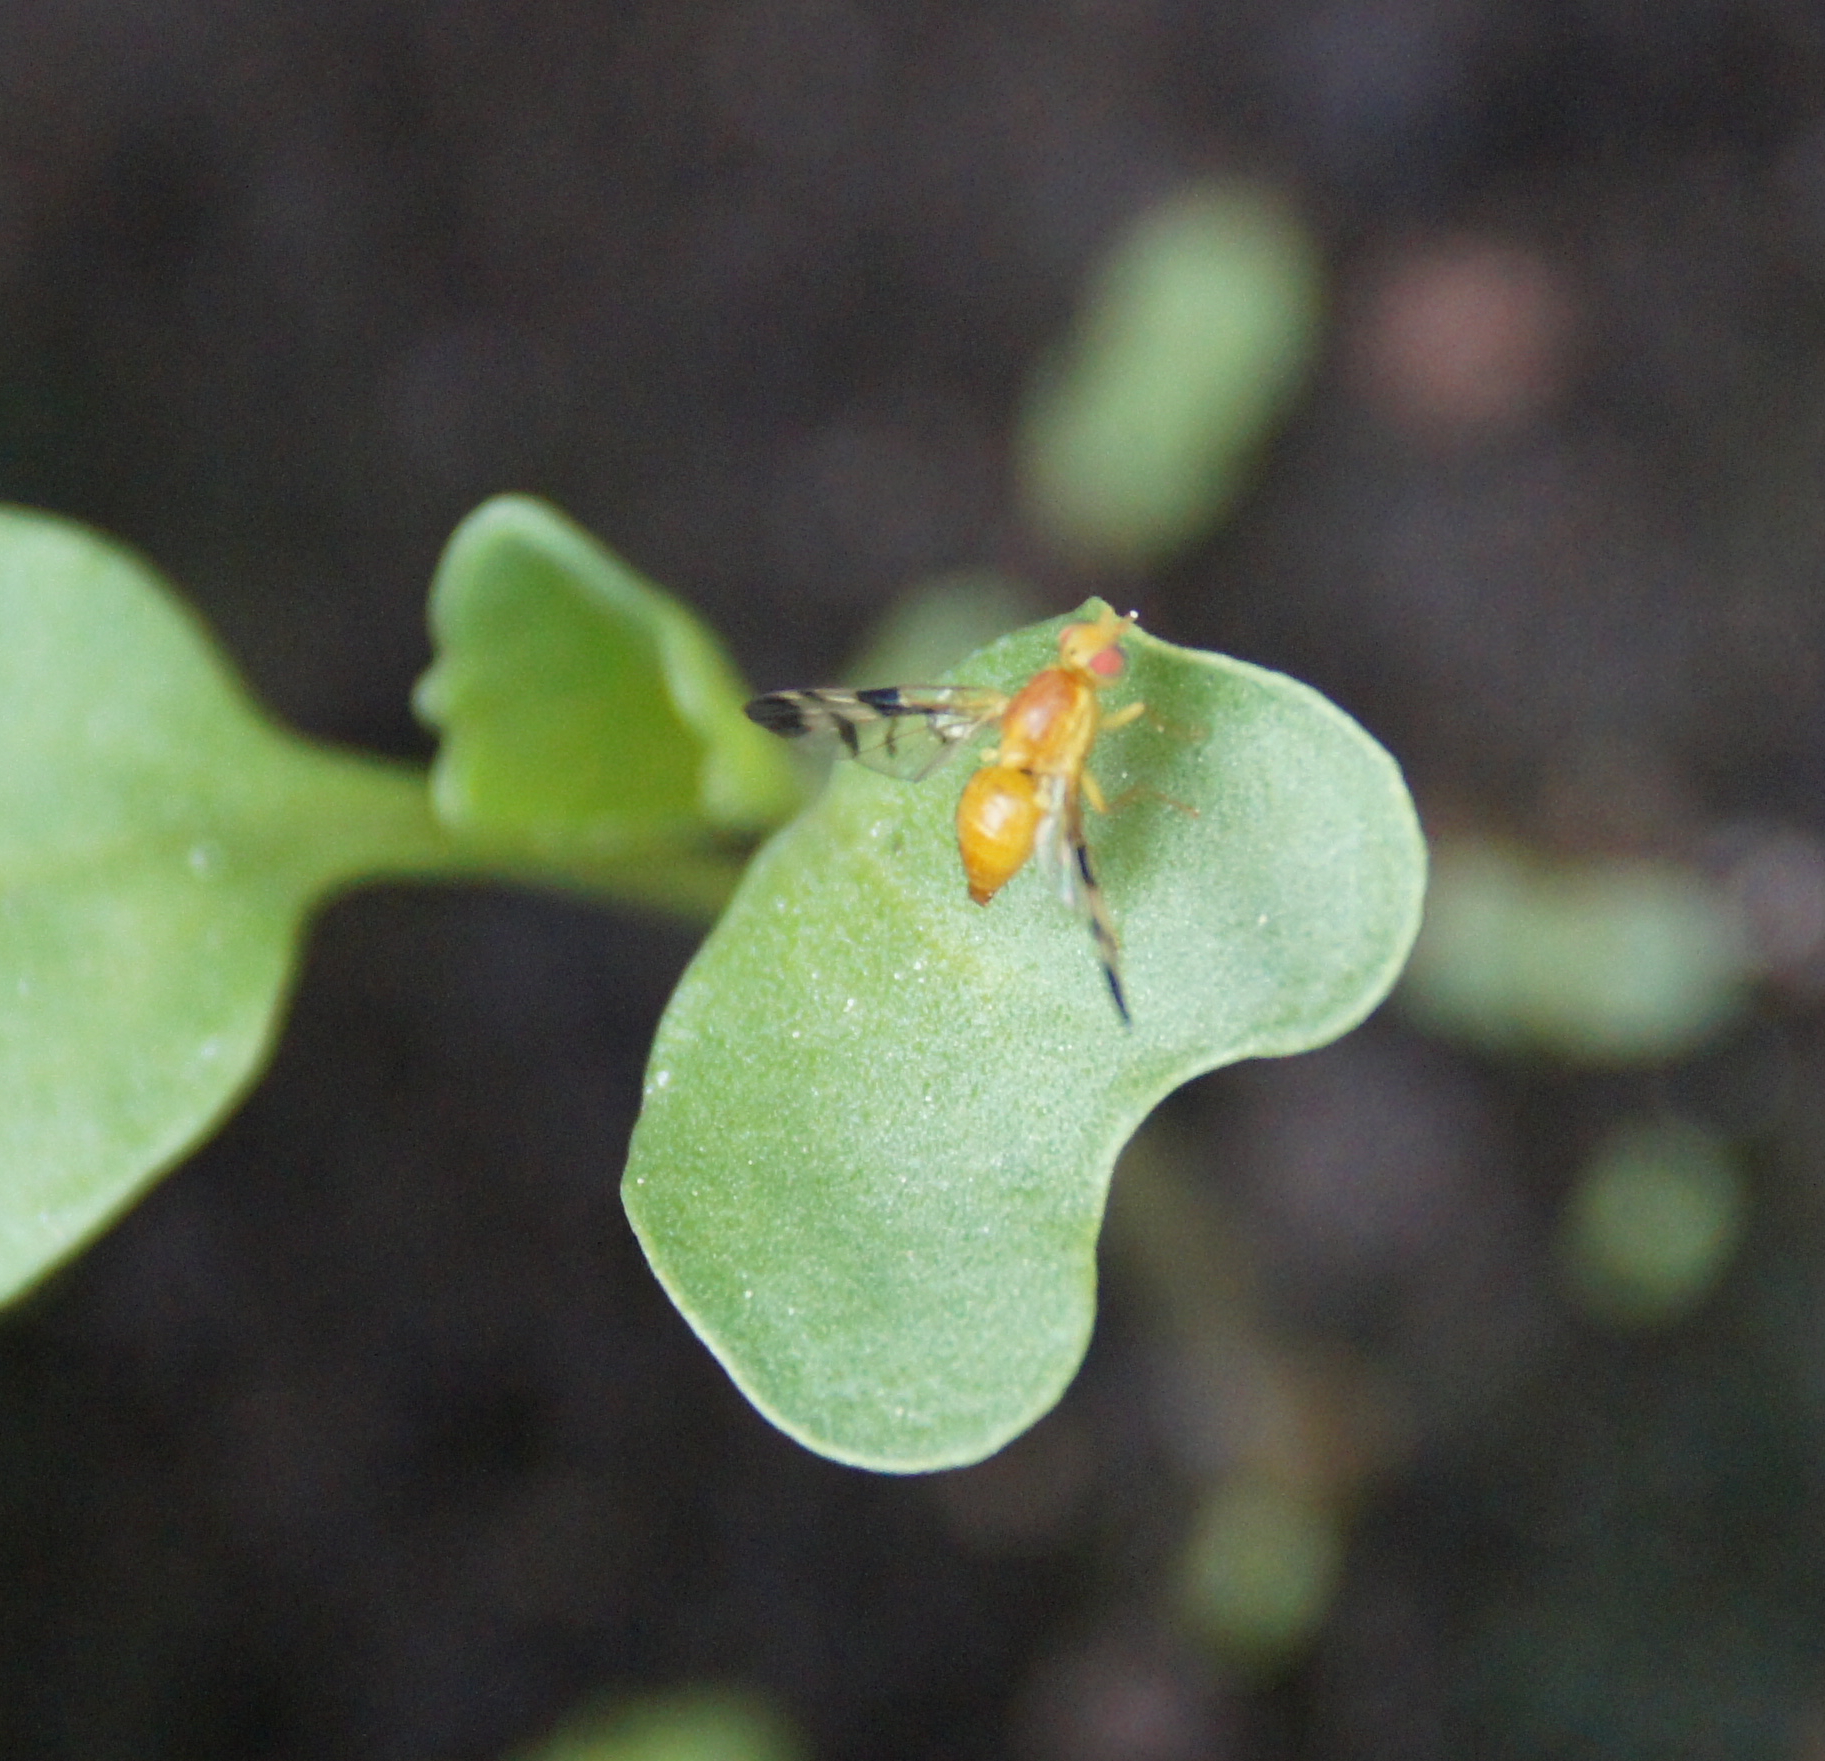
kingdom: Animalia
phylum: Arthropoda
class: Insecta
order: Diptera
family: Tephritidae
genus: Trypeta
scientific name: Trypeta zoe
